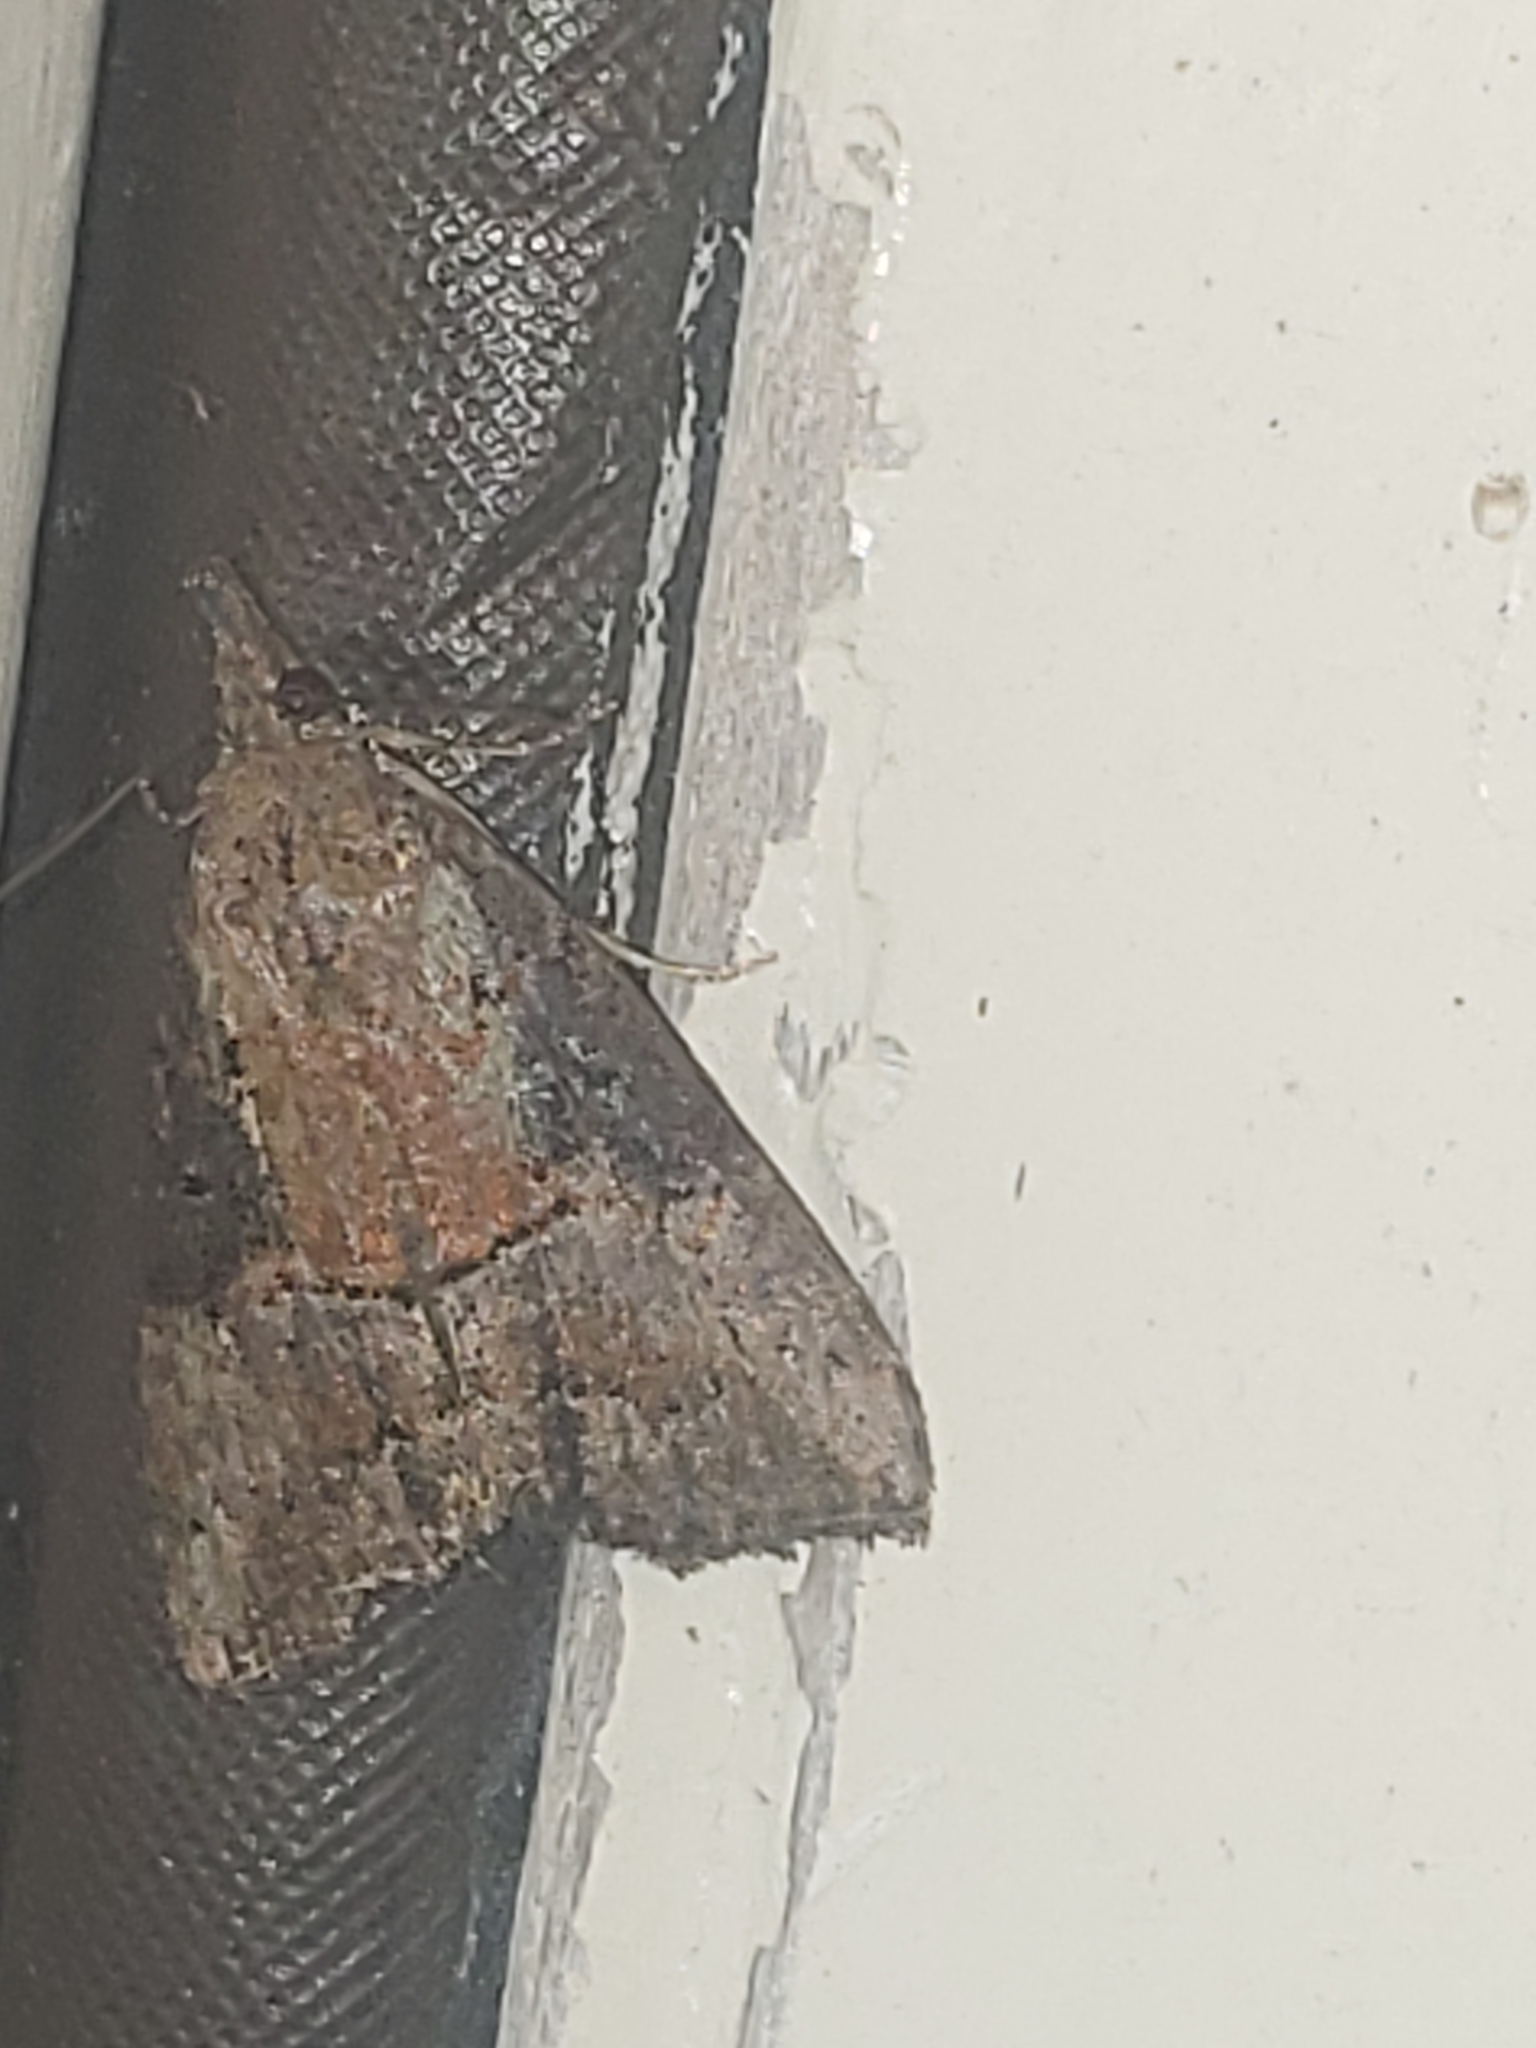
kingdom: Animalia
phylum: Arthropoda
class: Insecta
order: Lepidoptera
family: Erebidae
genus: Hypena
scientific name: Hypena scabra
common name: Green cloverworm
